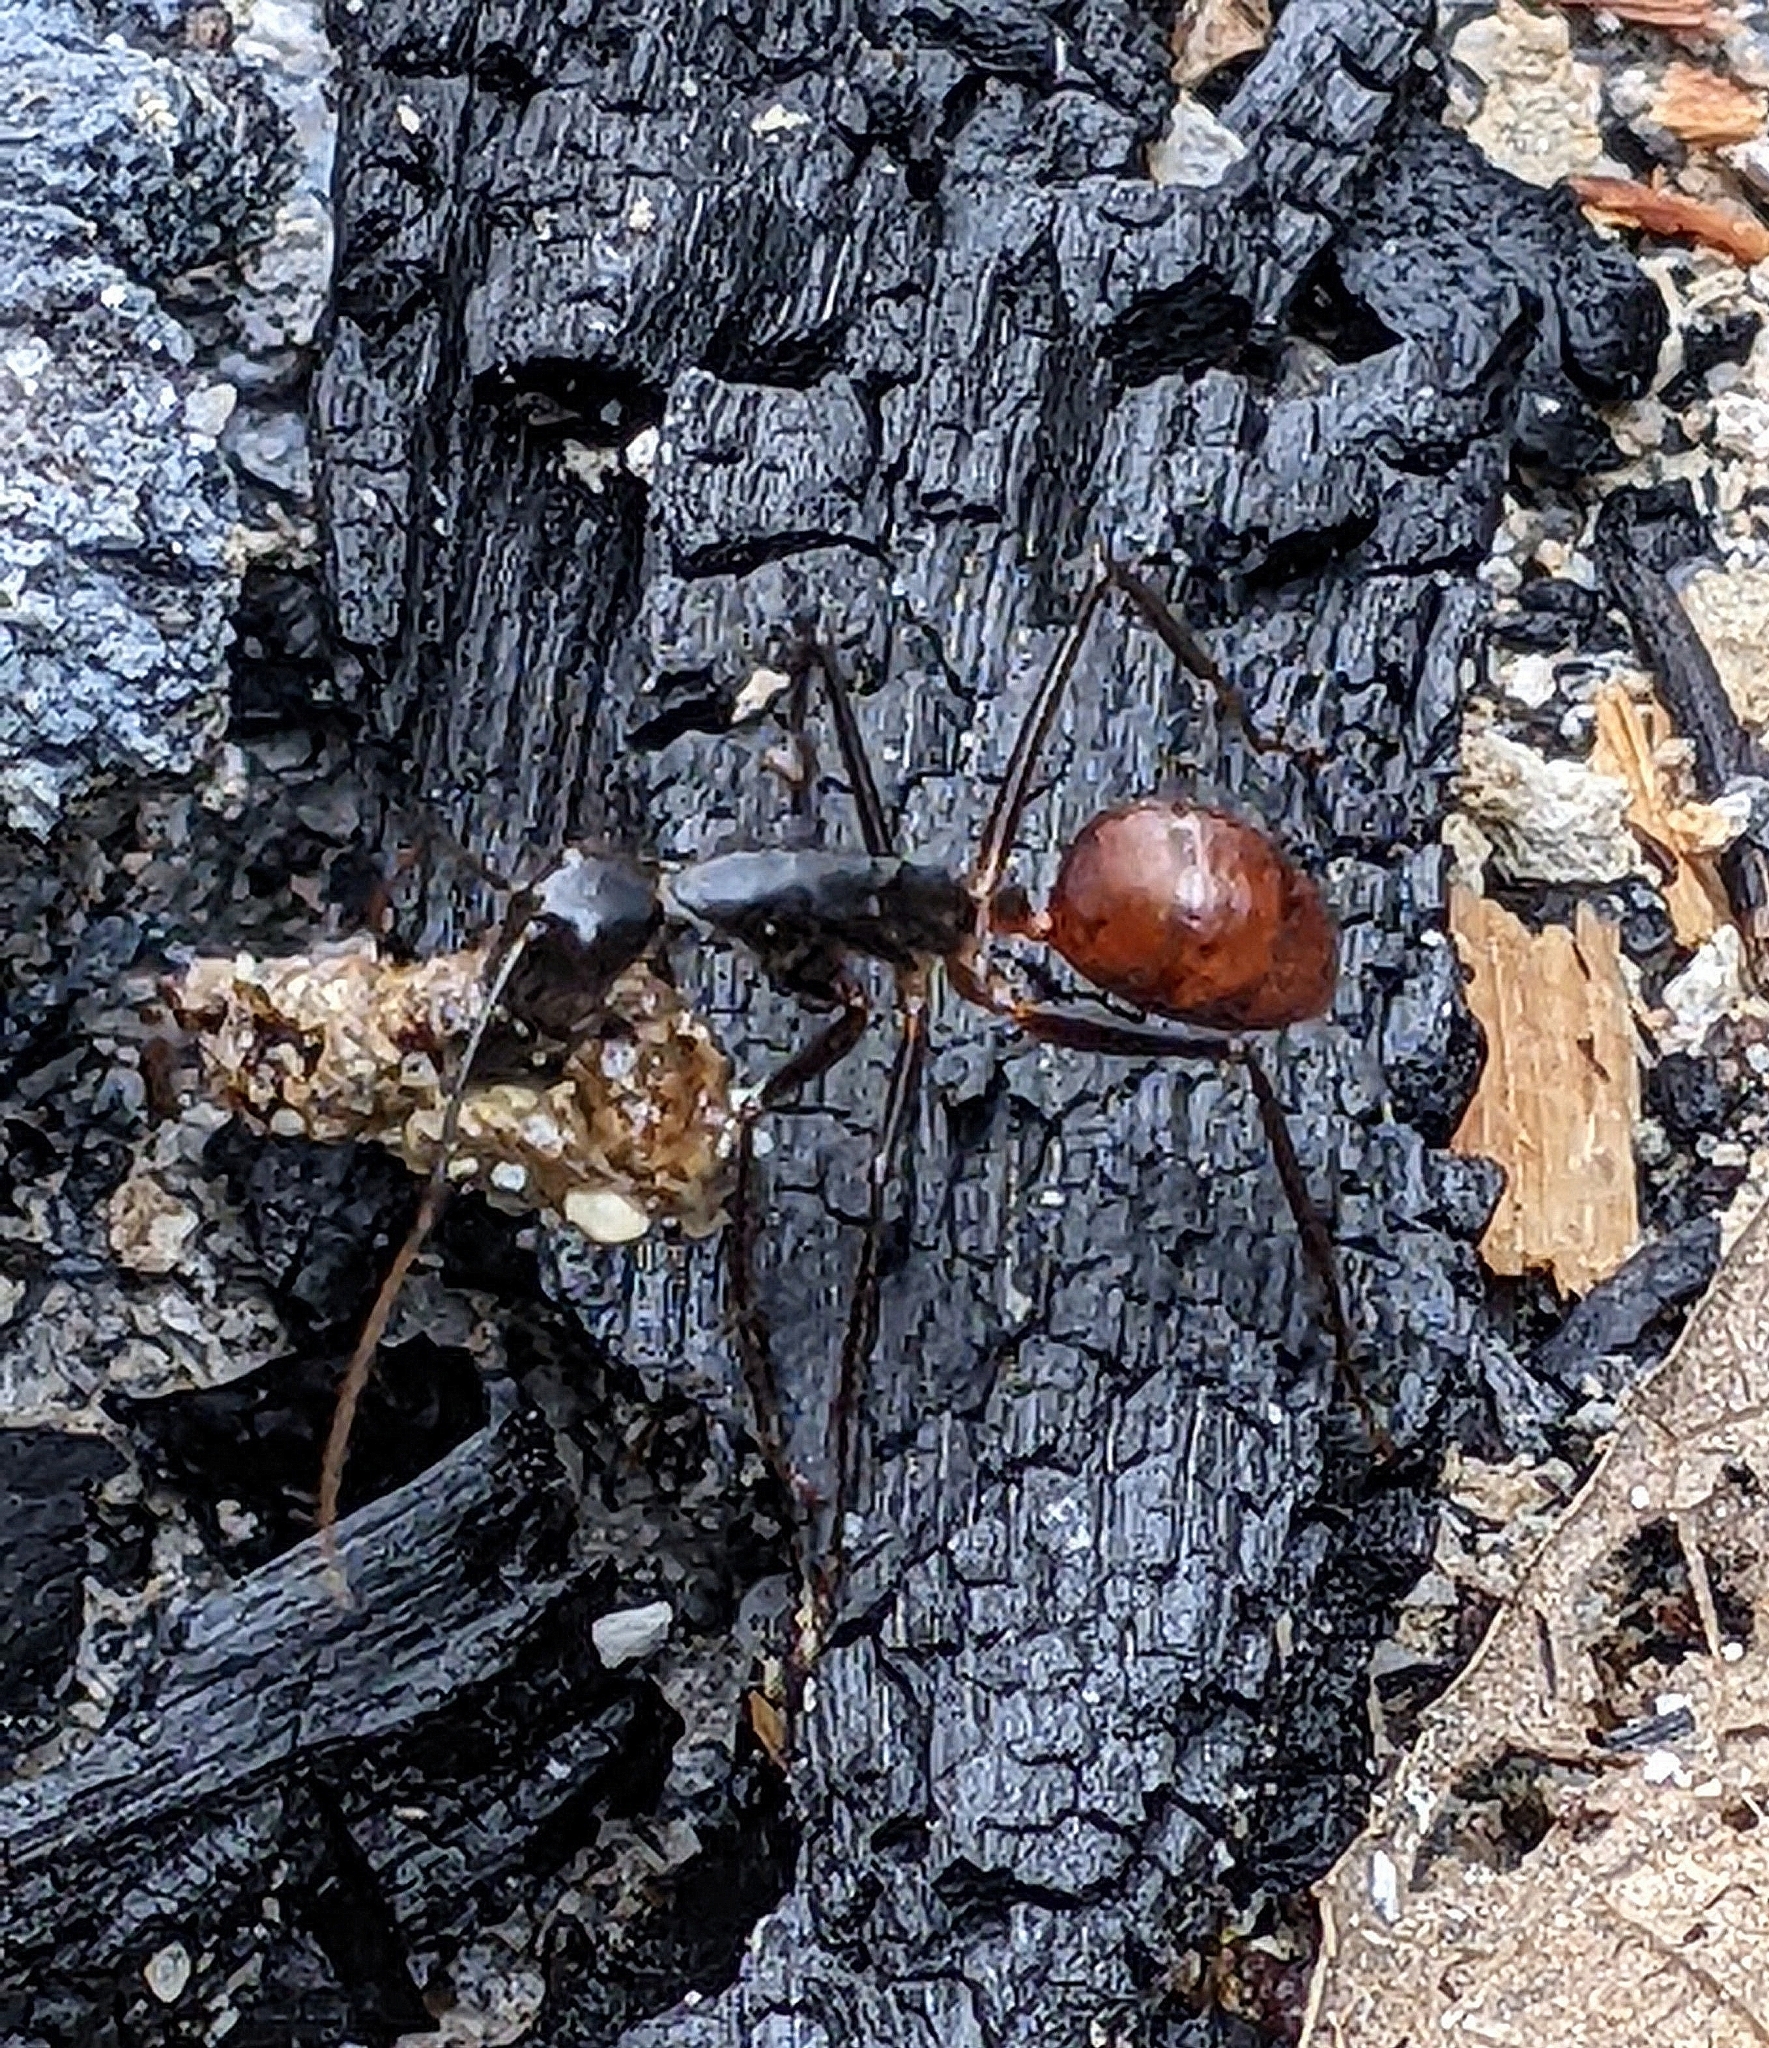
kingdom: Animalia
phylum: Arthropoda
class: Insecta
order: Hymenoptera
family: Formicidae
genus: Dinomyrmex
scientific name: Dinomyrmex
